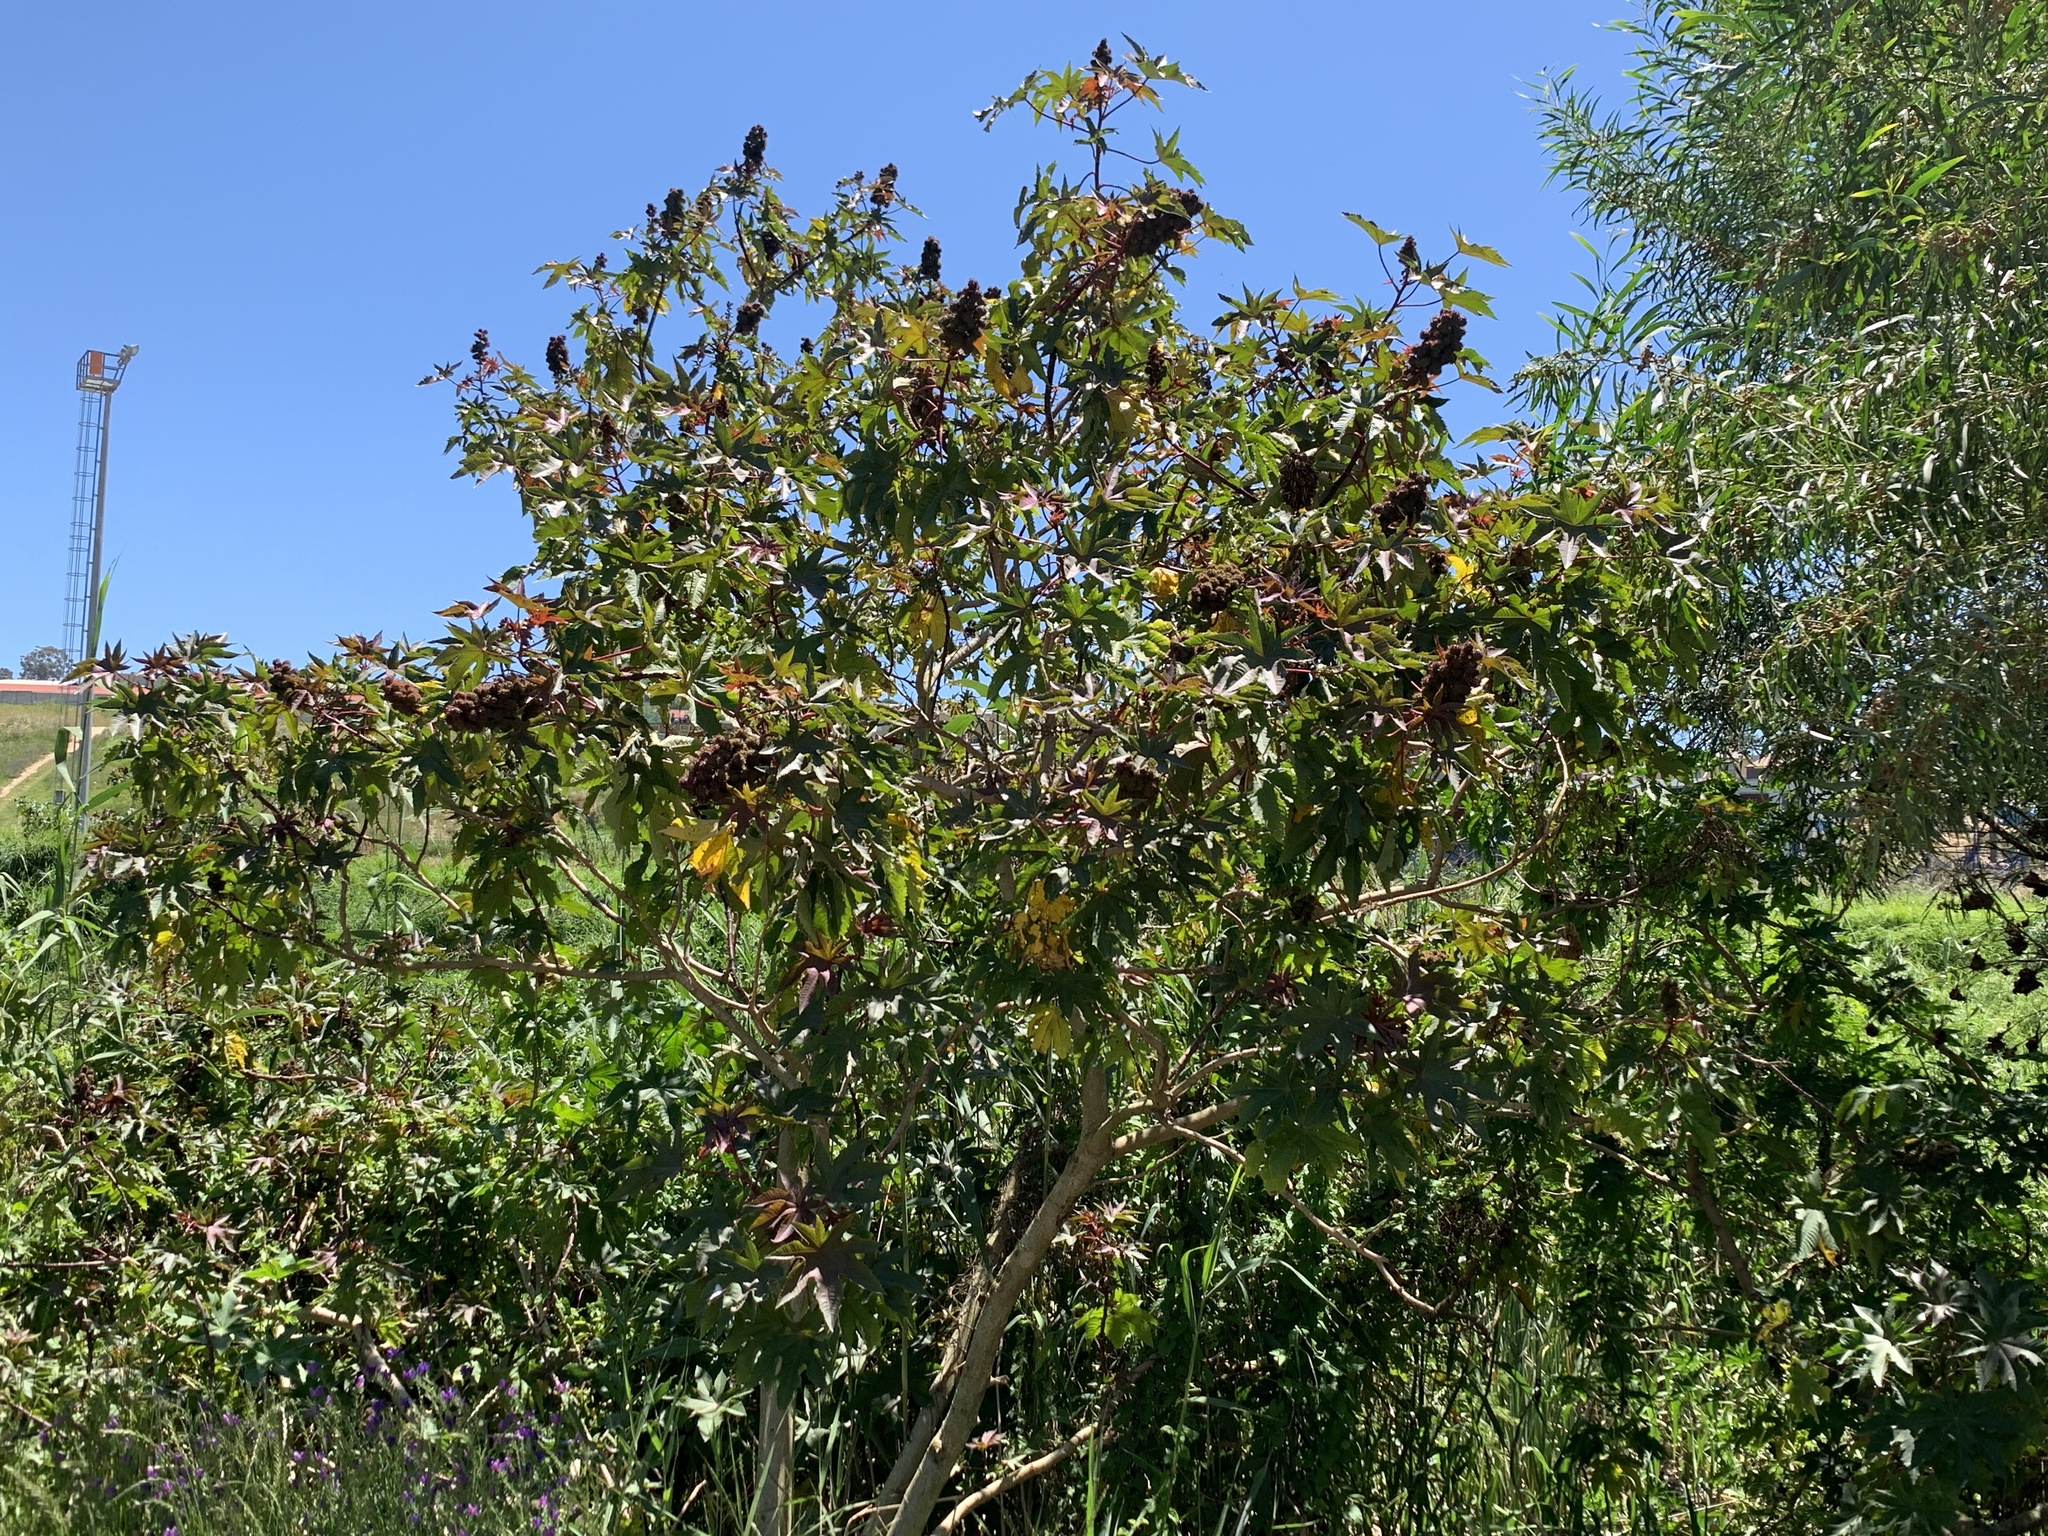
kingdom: Plantae
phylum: Tracheophyta
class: Magnoliopsida
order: Malpighiales
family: Euphorbiaceae
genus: Ricinus
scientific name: Ricinus communis
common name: Castor-oil-plant
